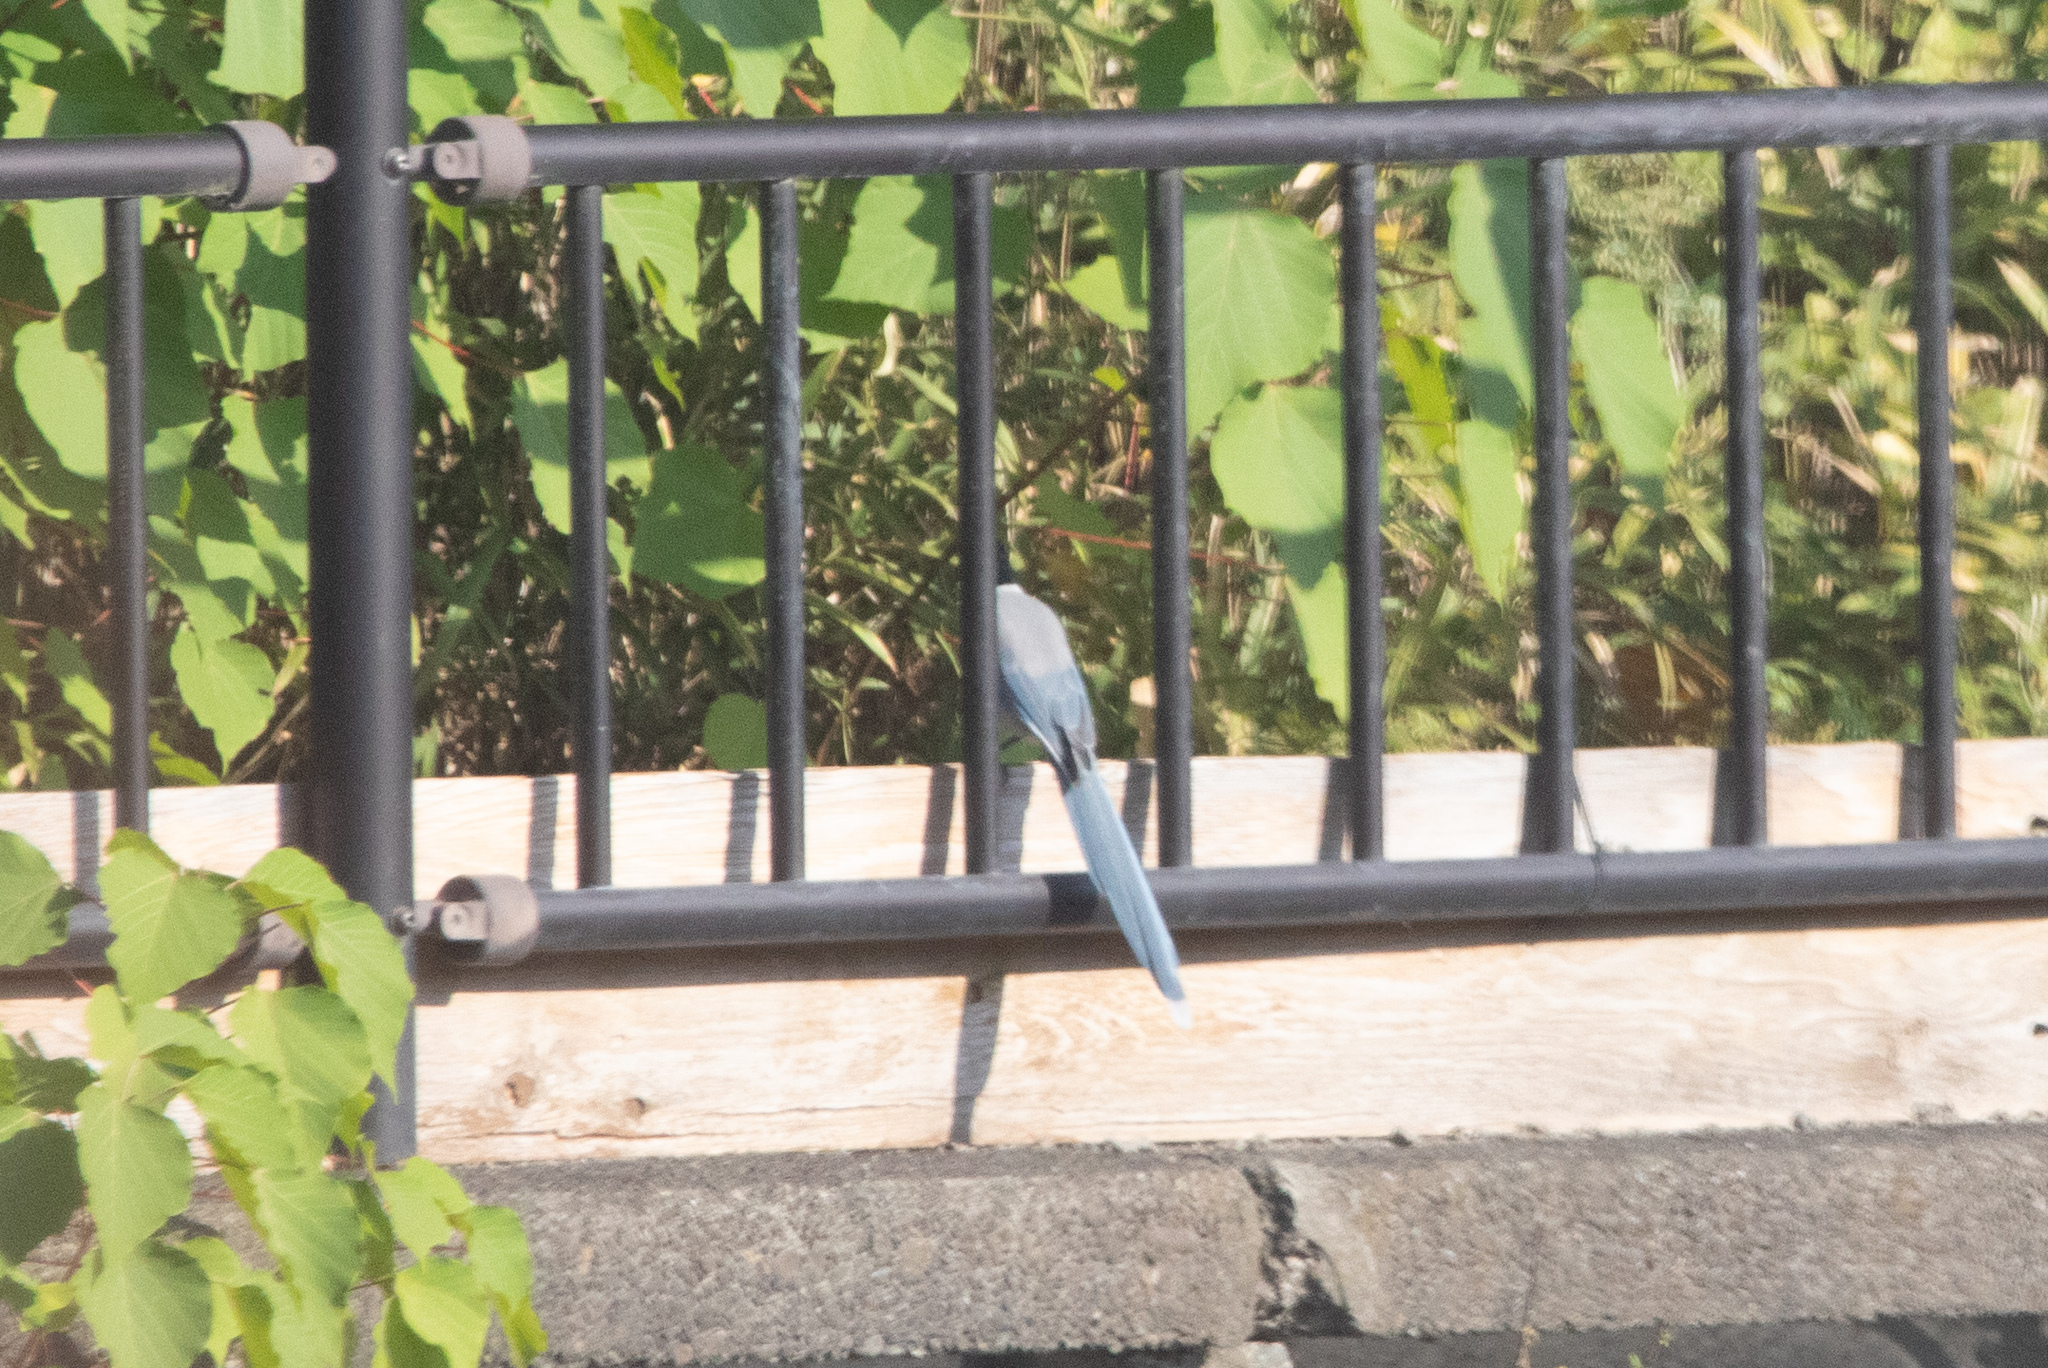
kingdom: Animalia
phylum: Chordata
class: Aves
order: Passeriformes
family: Corvidae
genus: Cyanopica
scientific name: Cyanopica cyanus
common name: Azure-winged magpie
